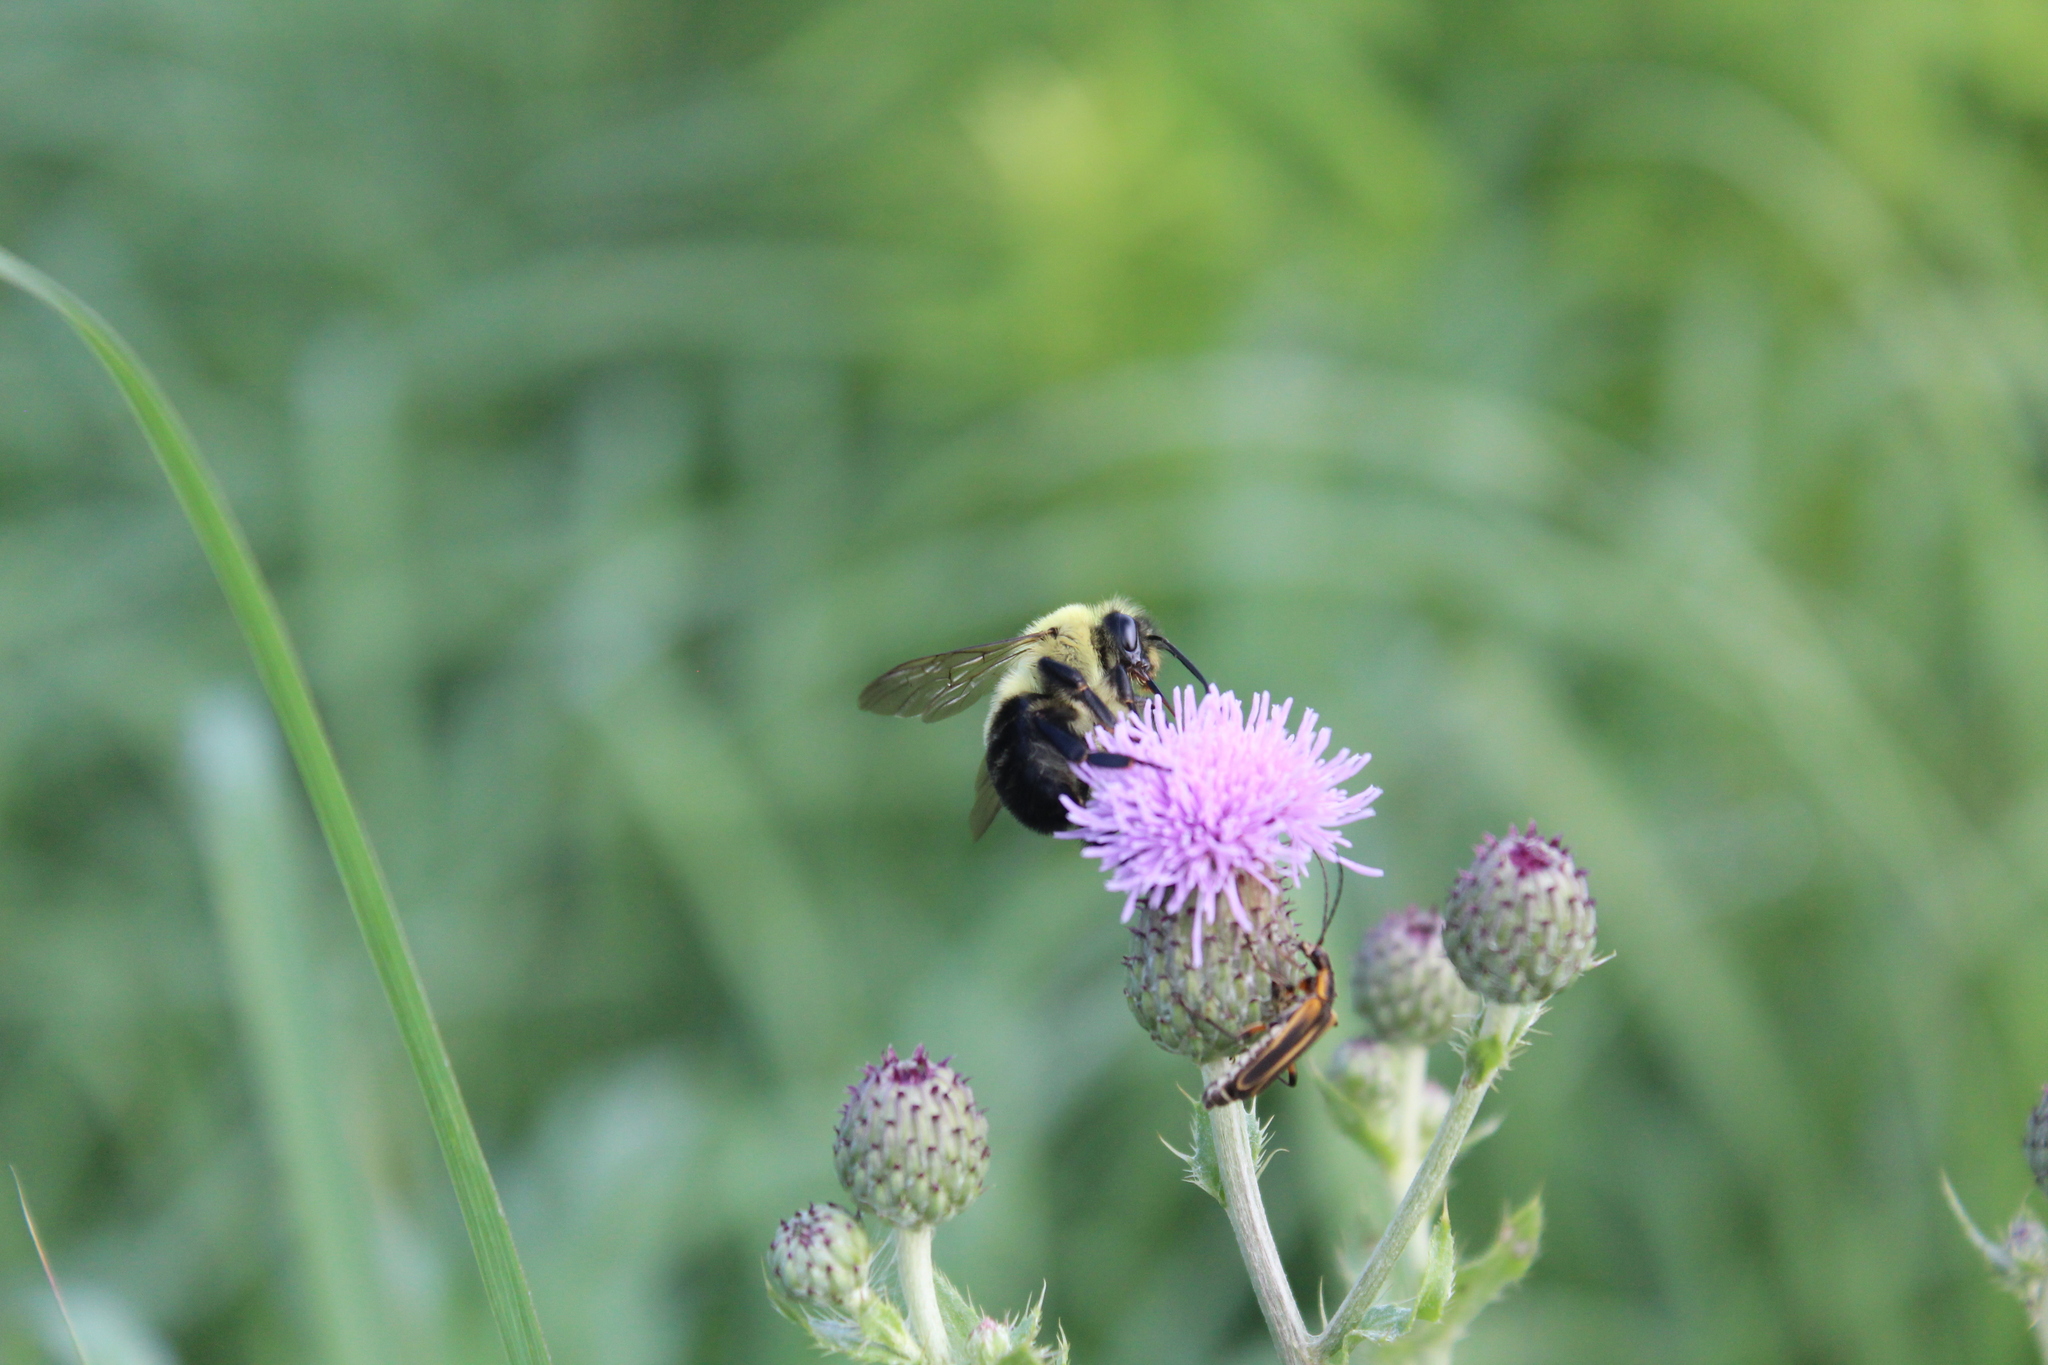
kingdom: Animalia
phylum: Arthropoda
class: Insecta
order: Hymenoptera
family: Apidae
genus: Bombus
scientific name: Bombus bimaculatus
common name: Two-spotted bumble bee
